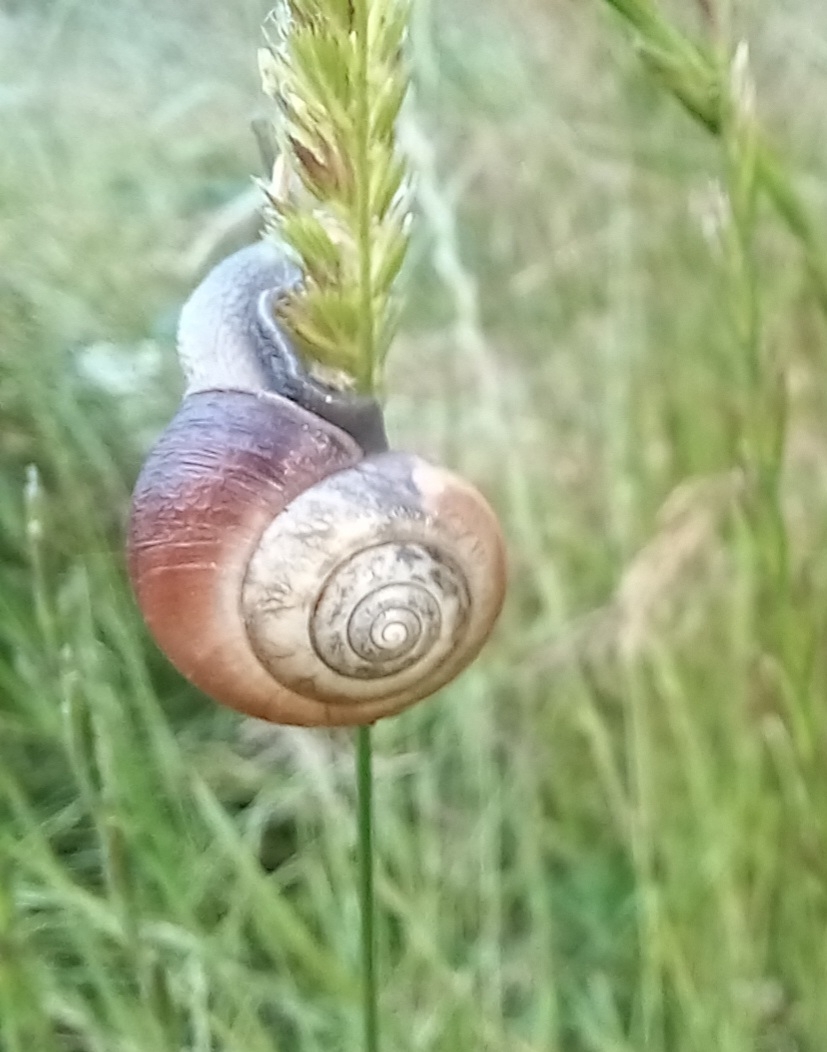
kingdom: Animalia
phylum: Mollusca
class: Gastropoda
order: Stylommatophora
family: Hygromiidae
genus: Monacha
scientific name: Monacha cantiana
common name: Kentish snail
